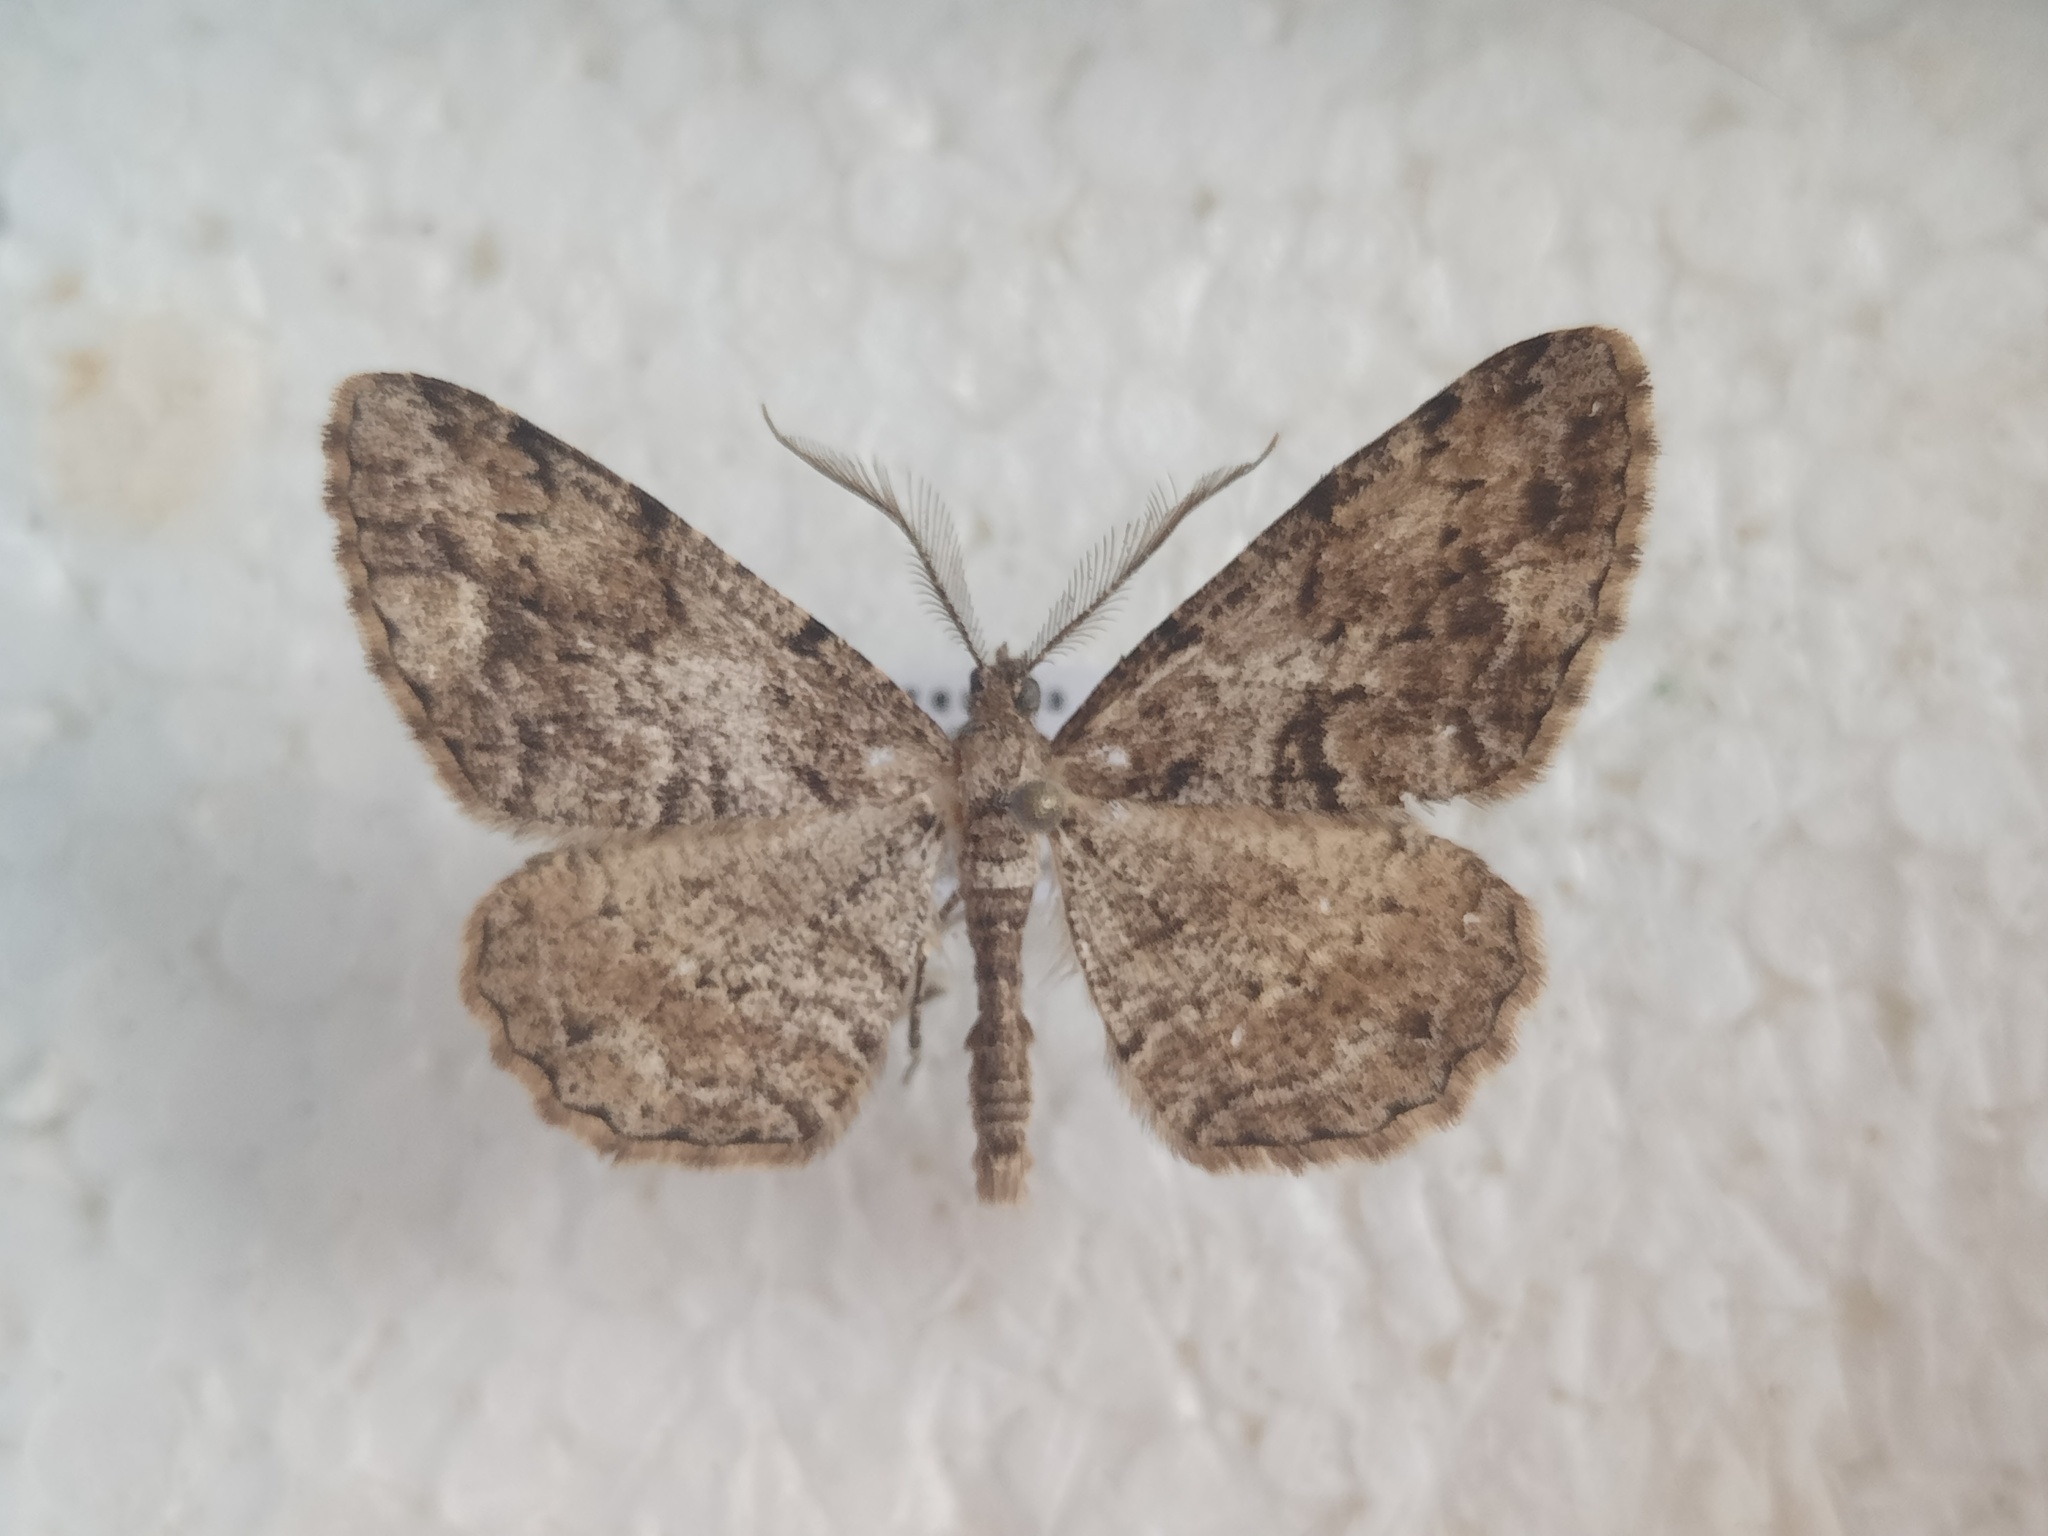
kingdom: Animalia
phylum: Arthropoda
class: Insecta
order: Lepidoptera
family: Geometridae
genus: Peribatodes
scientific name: Peribatodes secundaria
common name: Feathered beauty
